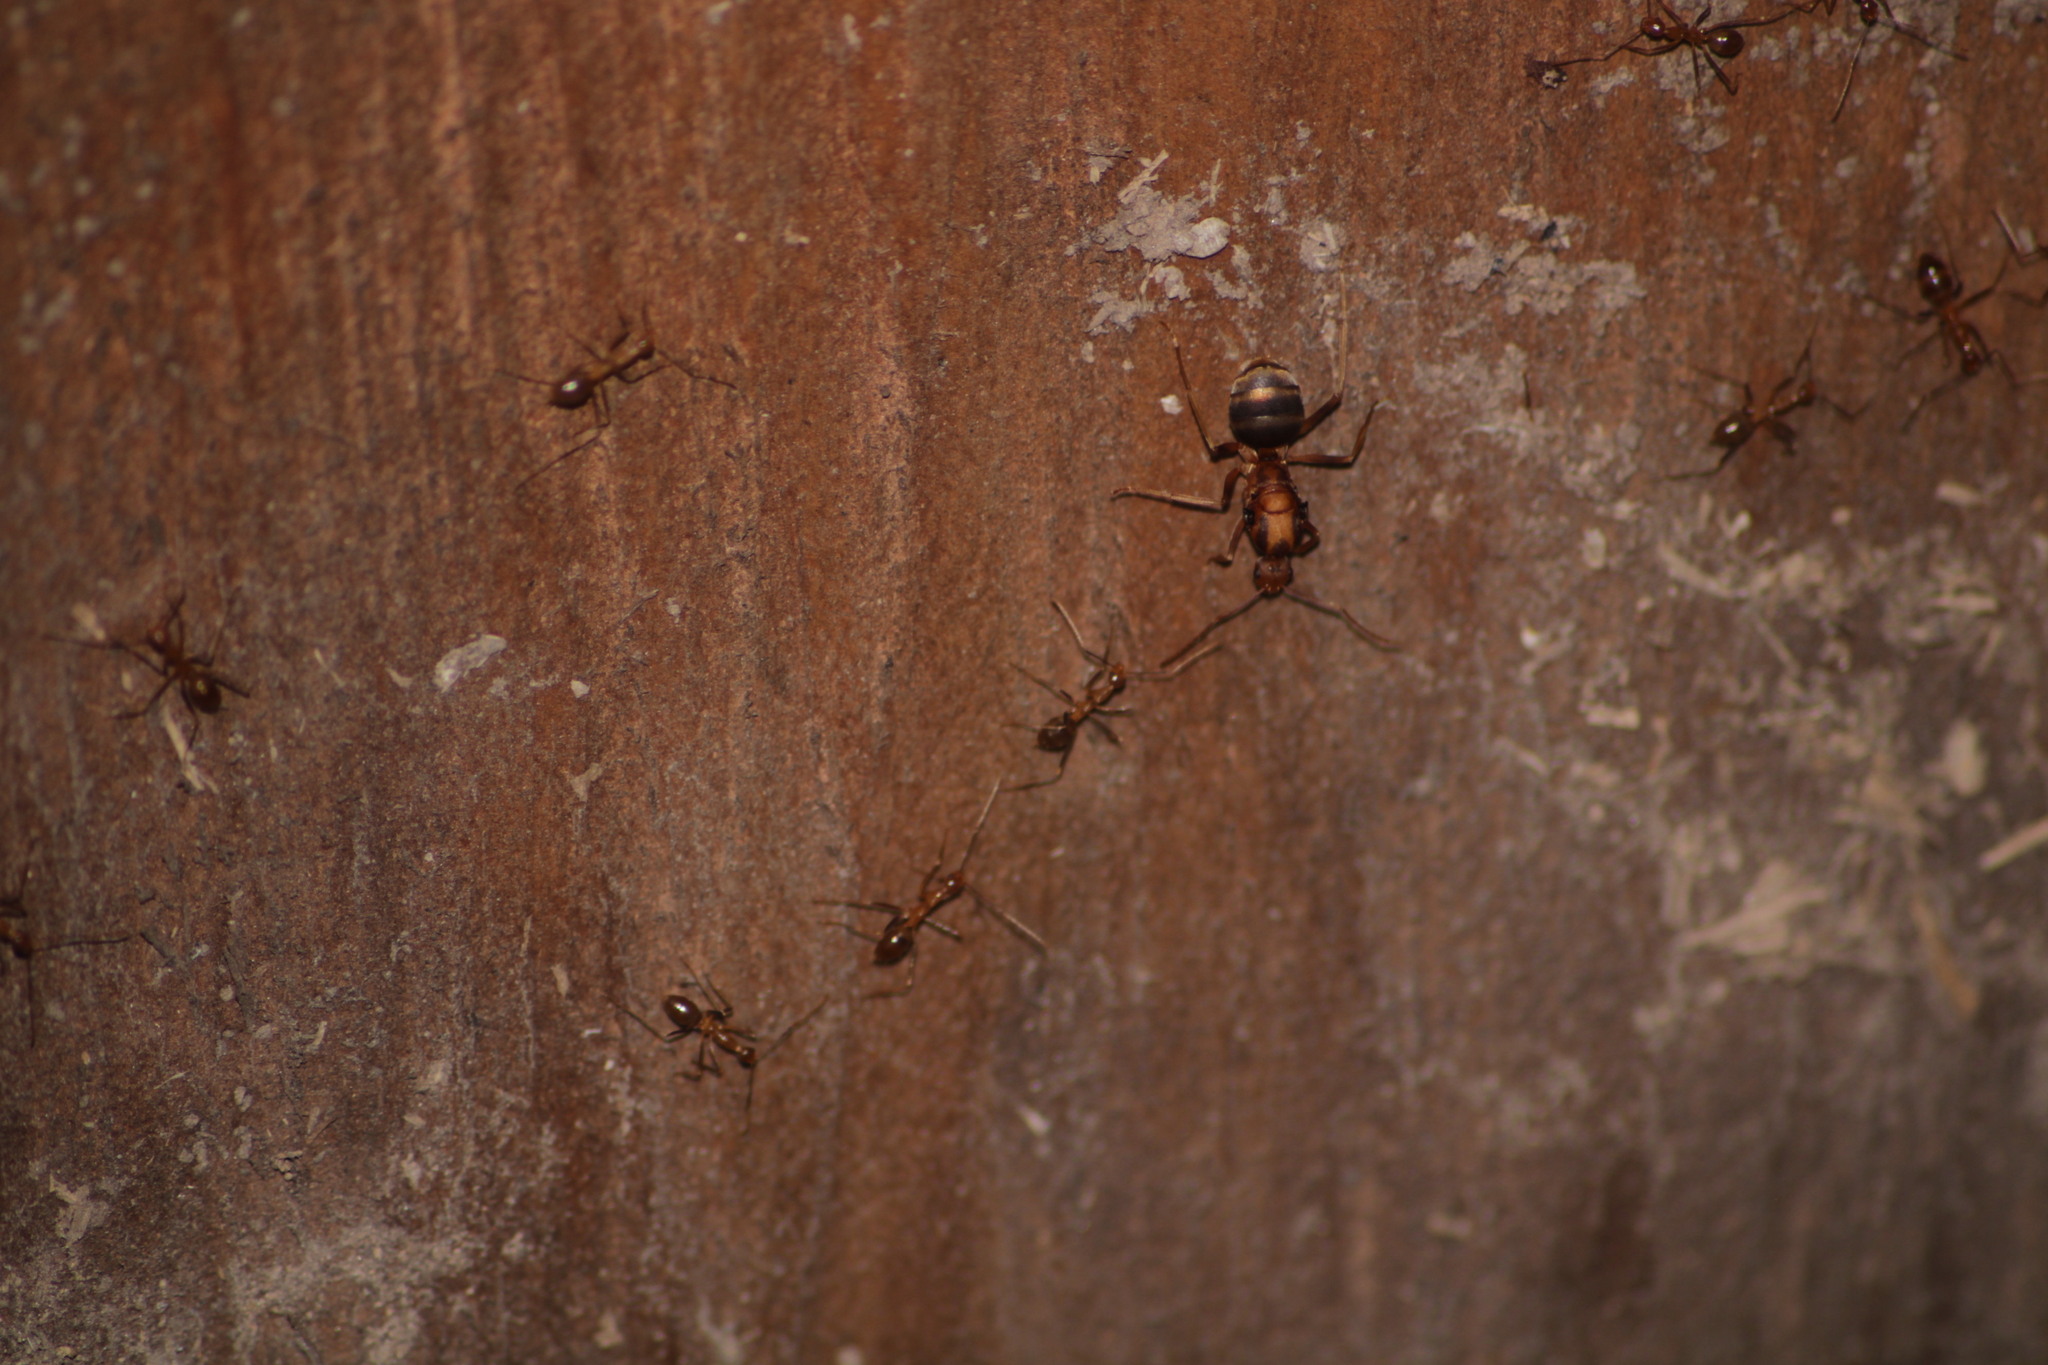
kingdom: Animalia
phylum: Arthropoda
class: Insecta
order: Hymenoptera
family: Formicidae
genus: Anoplolepis
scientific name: Anoplolepis gracilipes
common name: Ant
